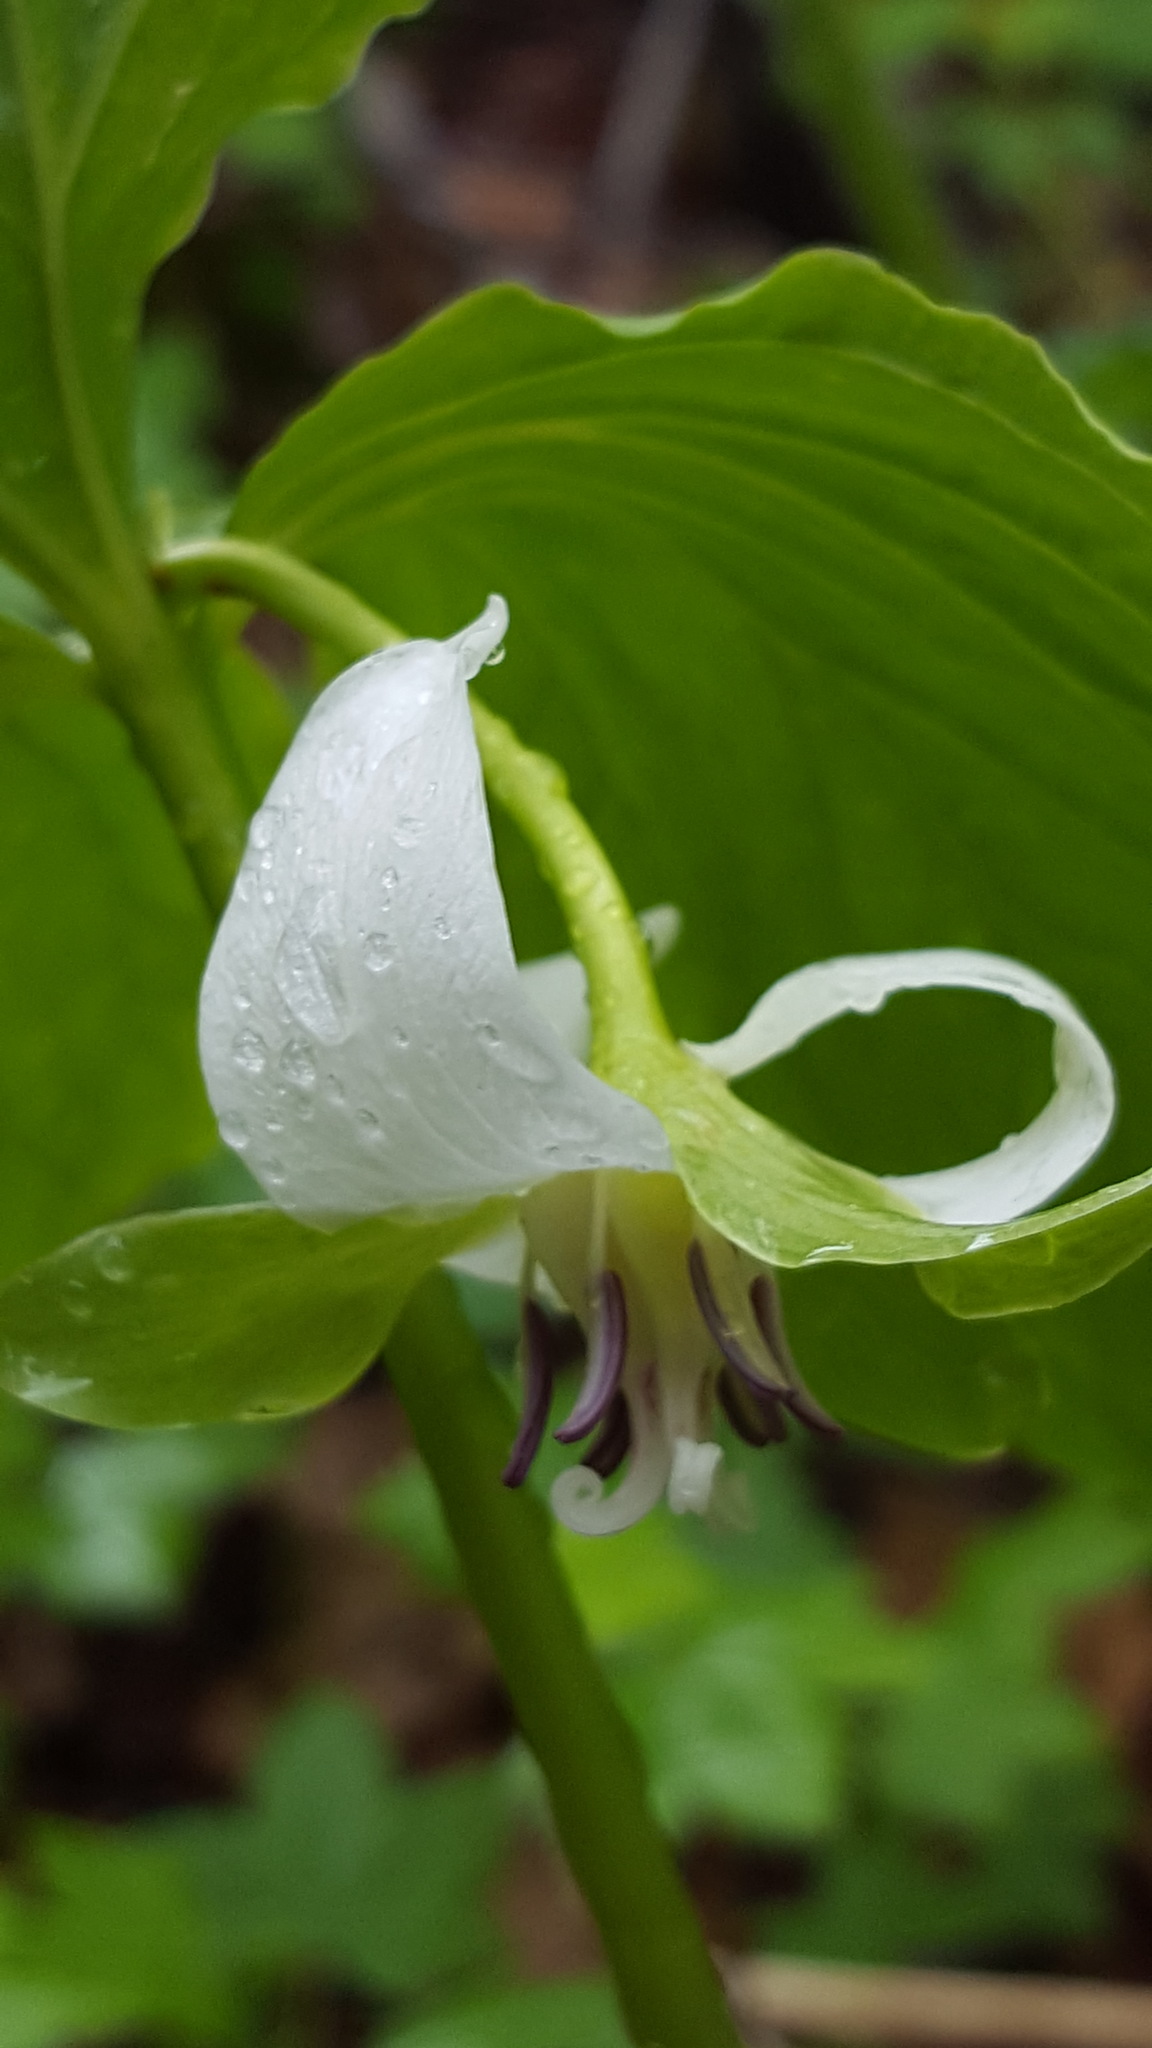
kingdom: Plantae
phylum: Tracheophyta
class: Liliopsida
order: Liliales
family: Melanthiaceae
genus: Trillium
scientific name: Trillium cernuum
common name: Nodding trillium
